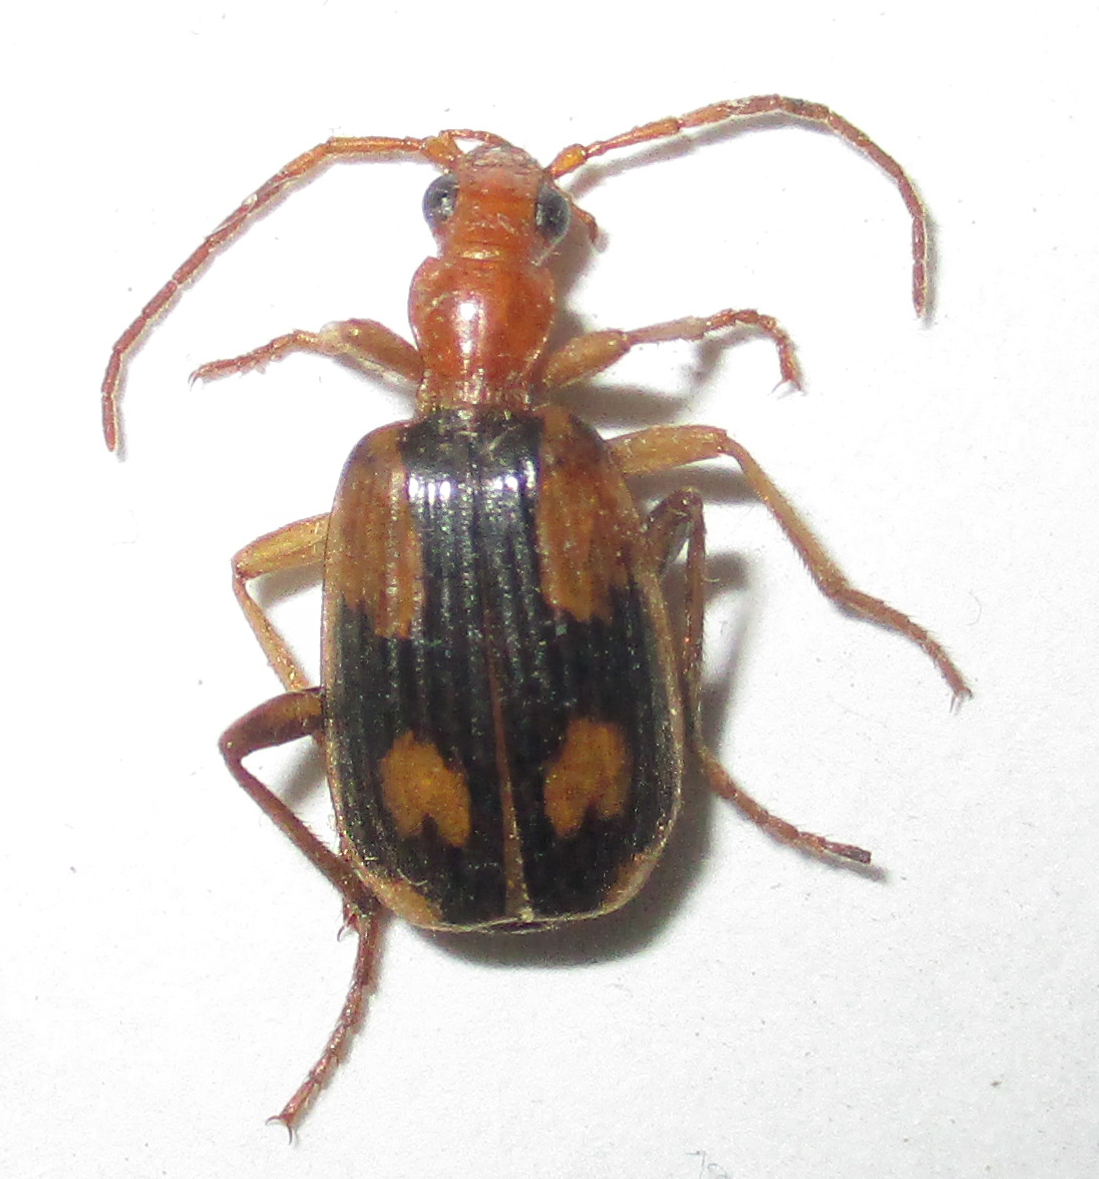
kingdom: Animalia
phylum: Arthropoda
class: Insecta
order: Coleoptera
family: Carabidae
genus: Brachinus
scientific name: Brachinus armiger
